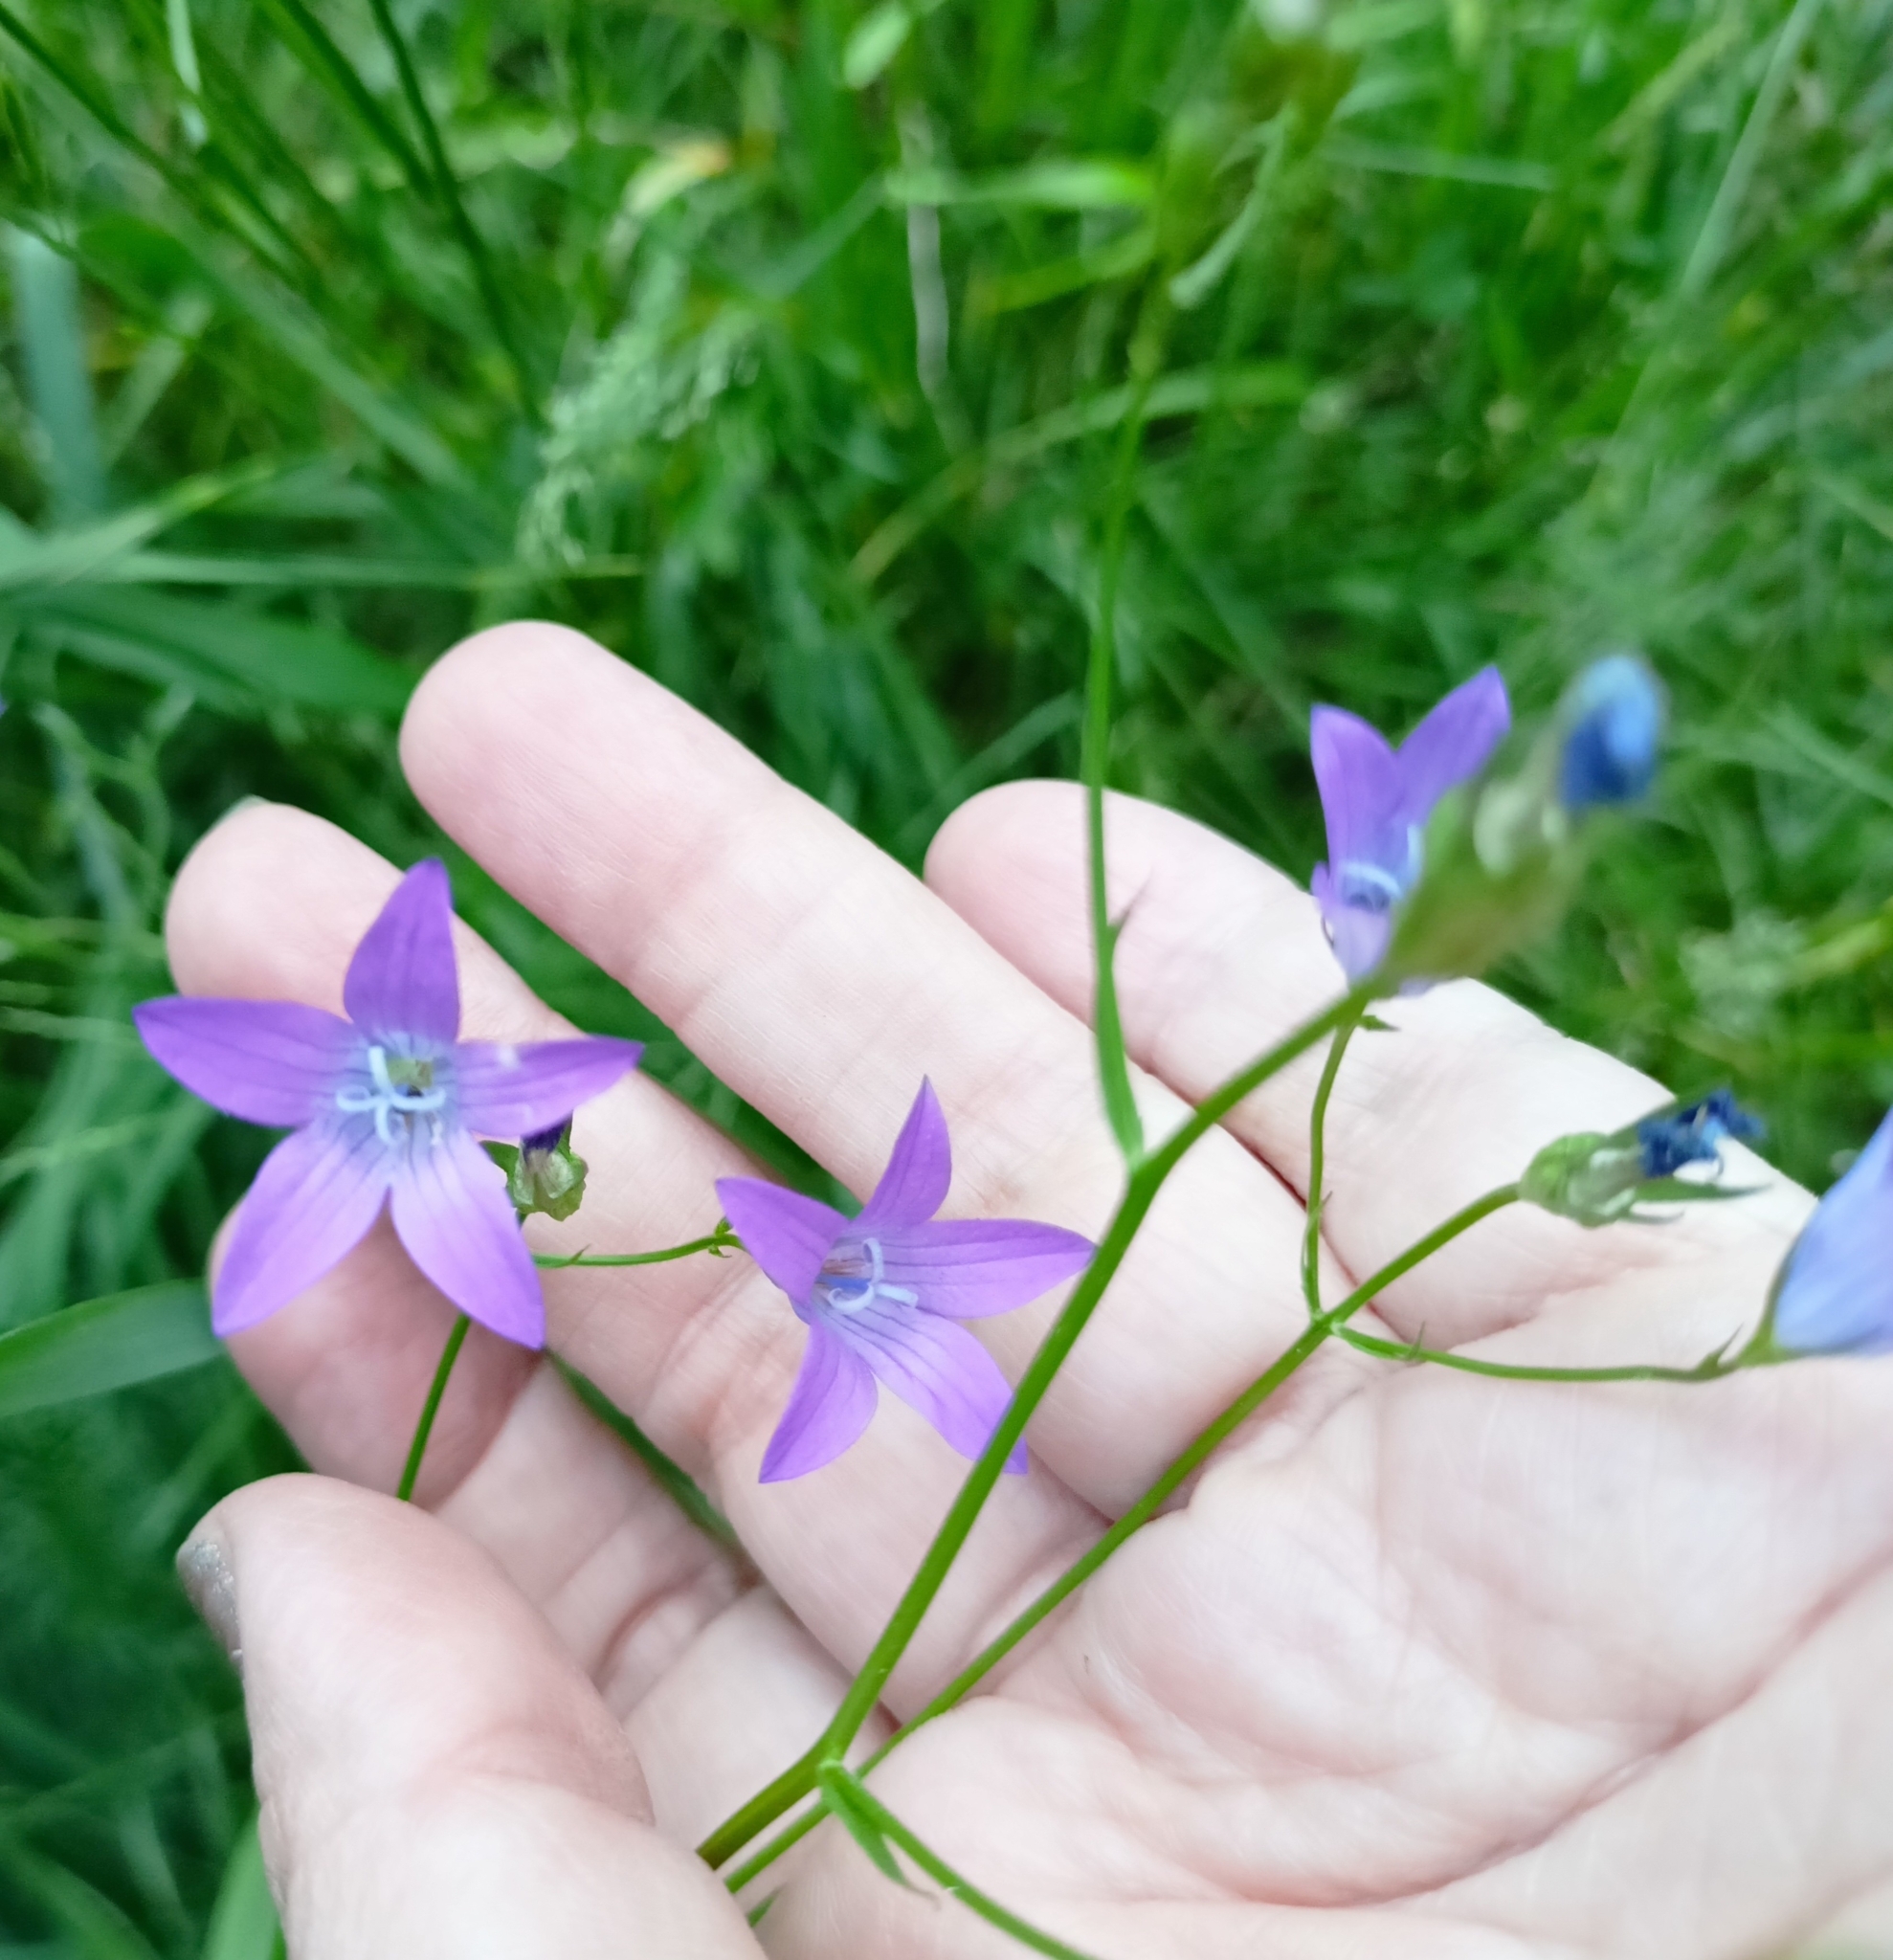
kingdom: Plantae
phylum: Tracheophyta
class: Magnoliopsida
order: Asterales
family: Campanulaceae
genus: Campanula
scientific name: Campanula patula
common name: Spreading bellflower
